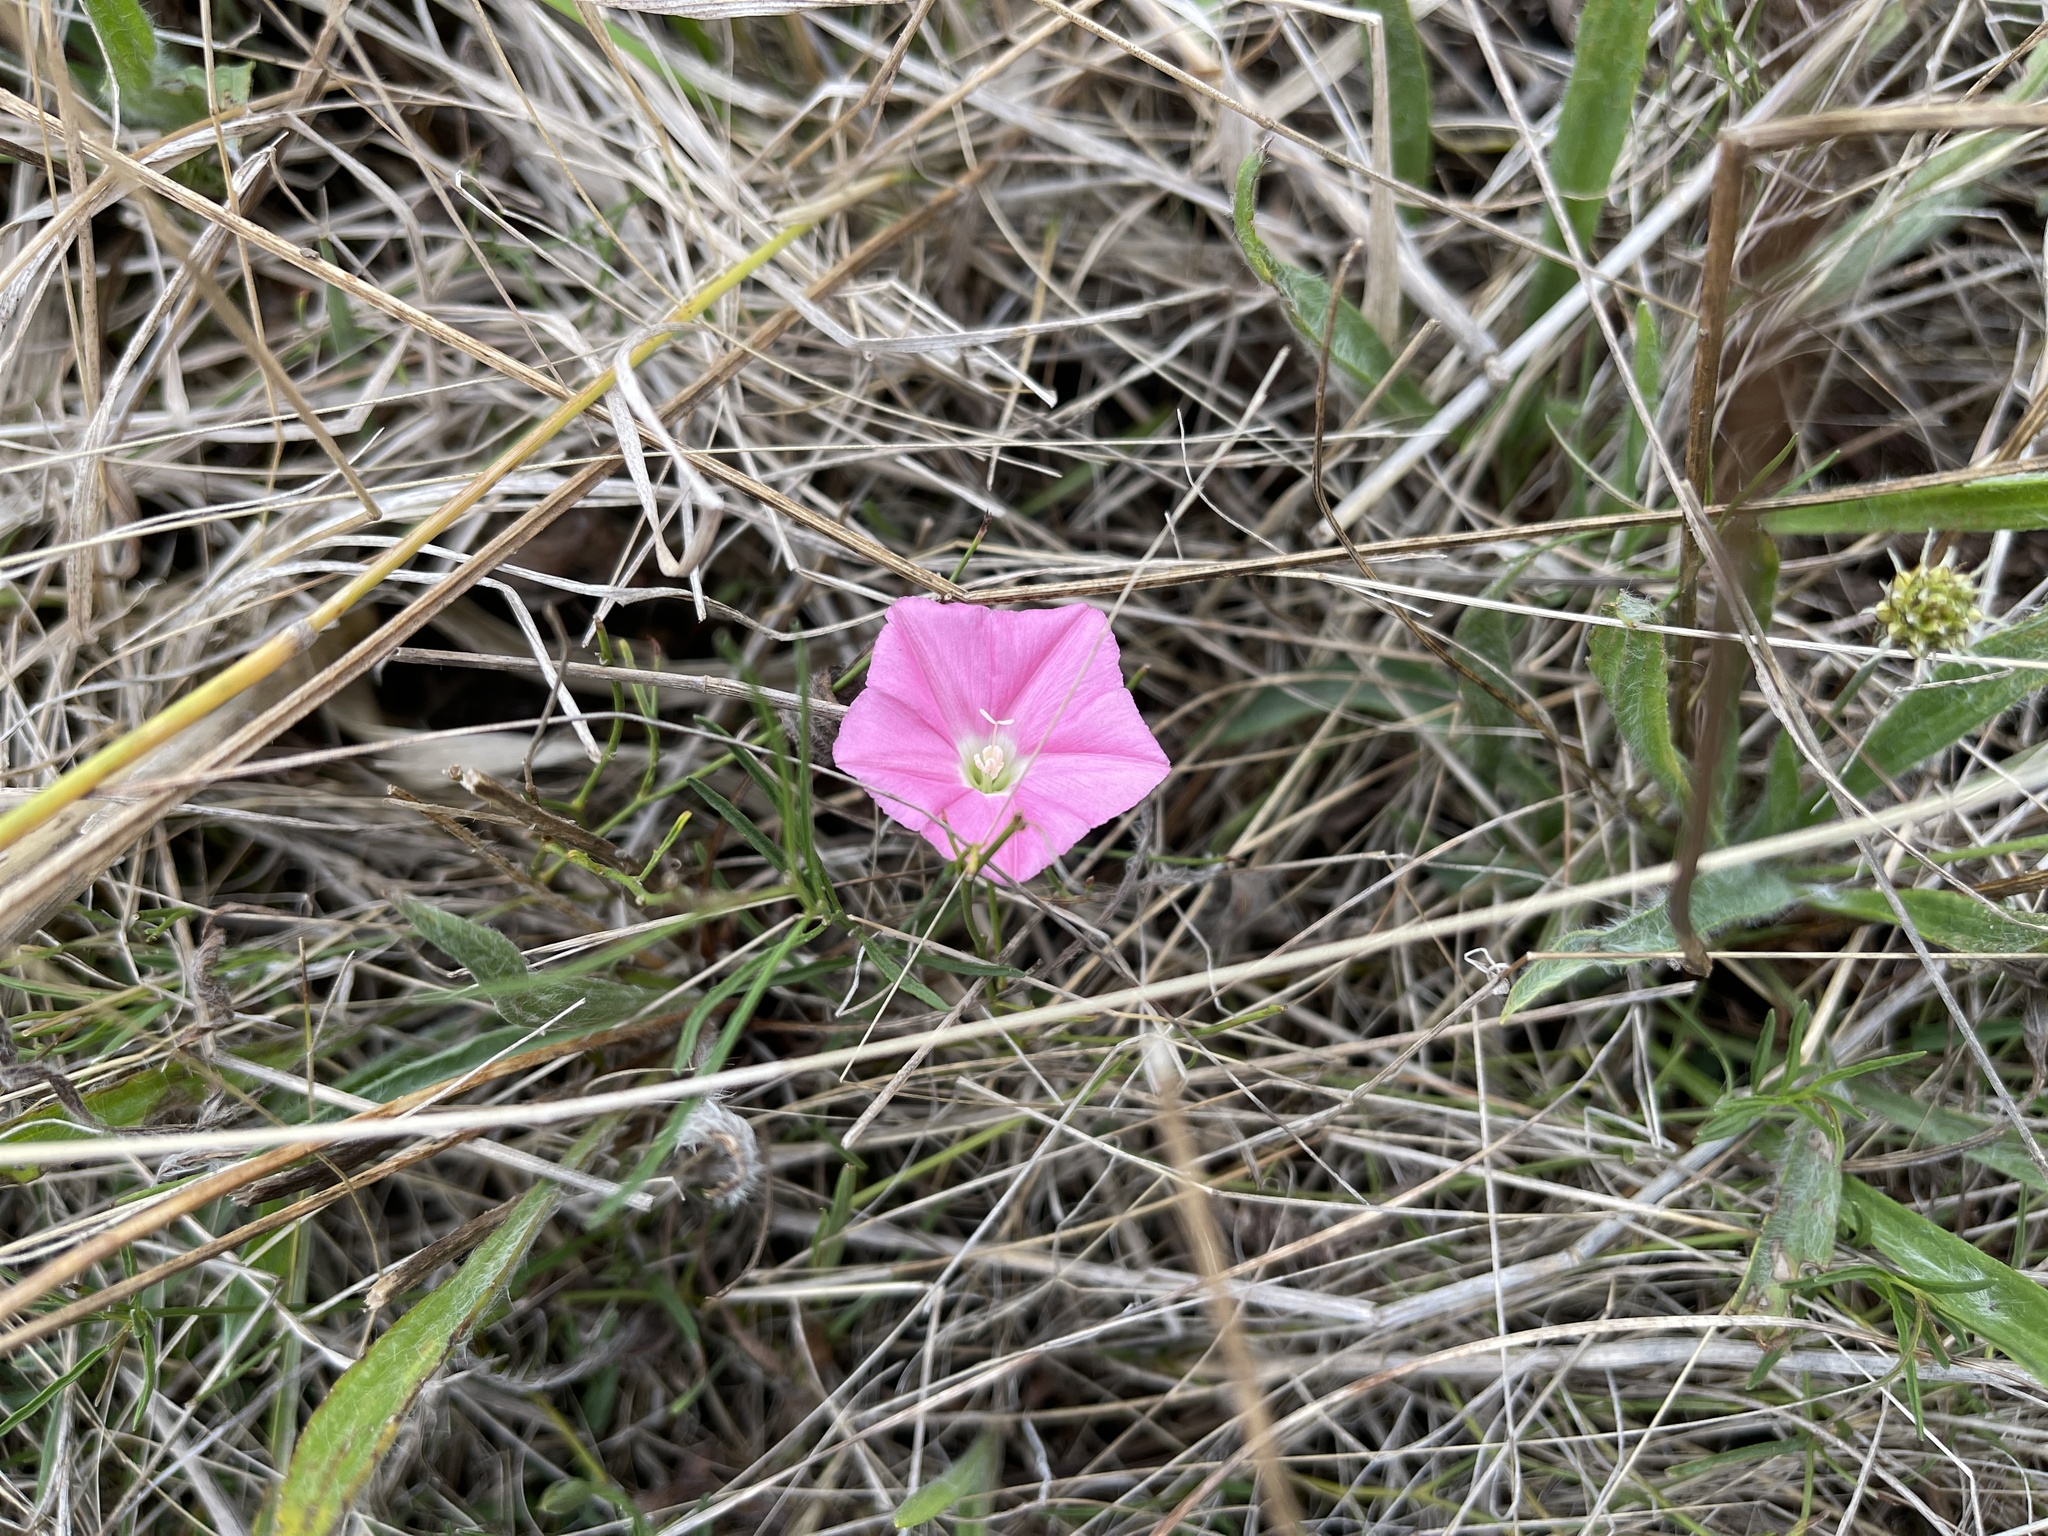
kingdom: Plantae
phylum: Tracheophyta
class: Magnoliopsida
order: Solanales
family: Convolvulaceae
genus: Convolvulus
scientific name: Convolvulus angustissimus
